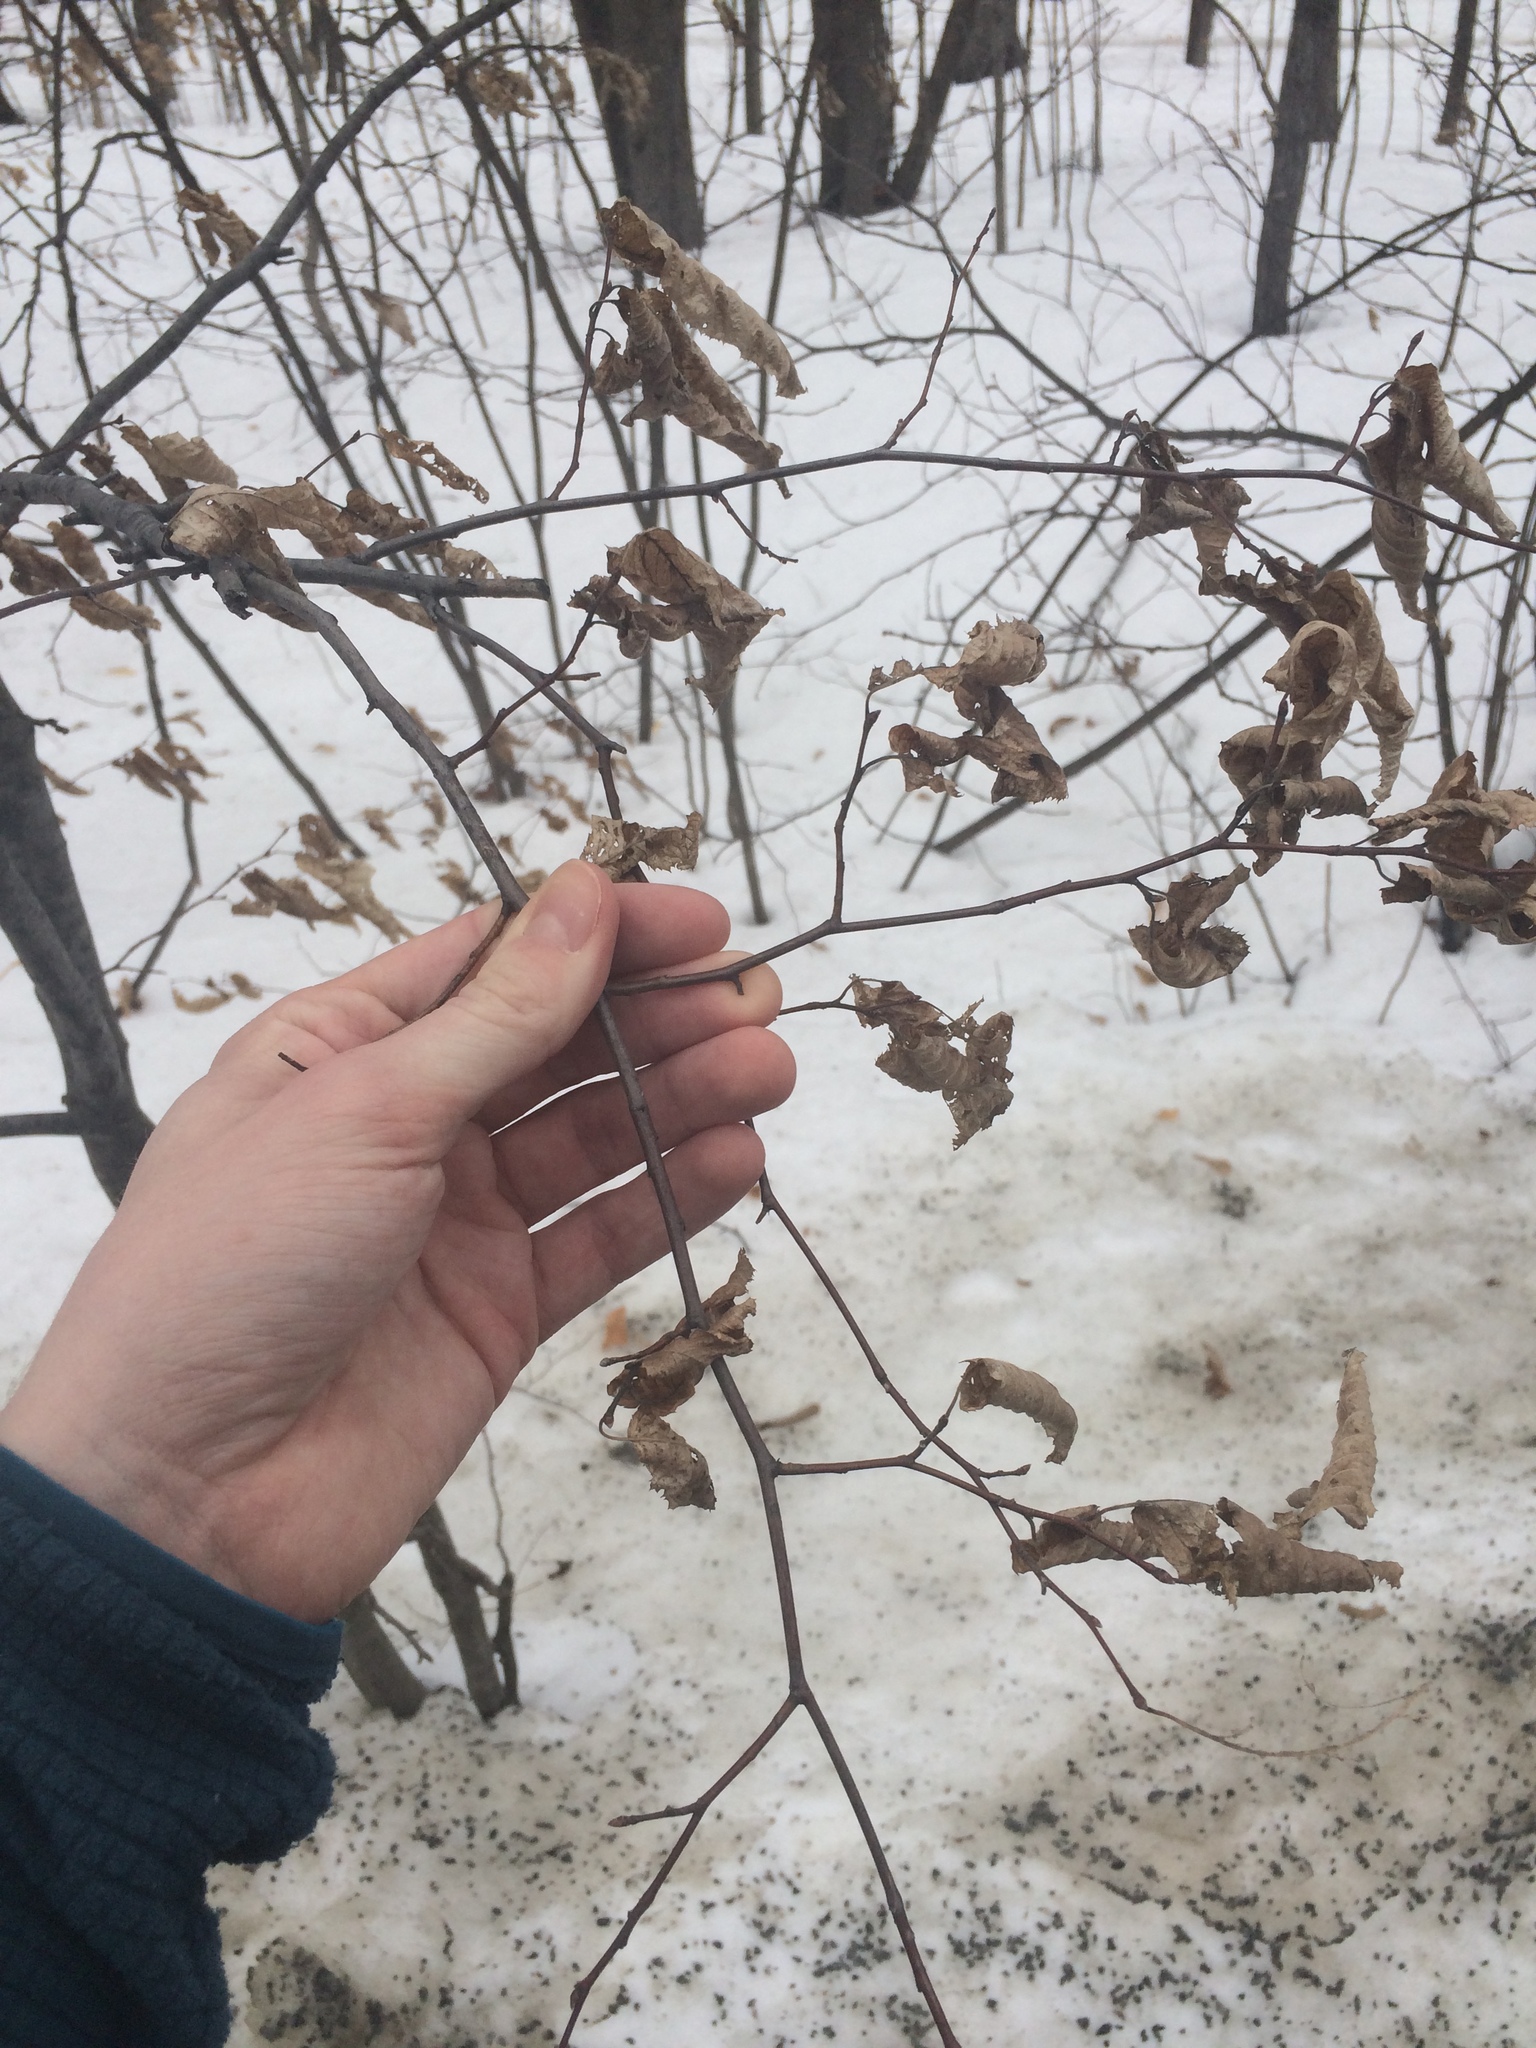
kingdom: Plantae
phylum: Tracheophyta
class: Magnoliopsida
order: Fagales
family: Betulaceae
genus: Carpinus
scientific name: Carpinus caroliniana
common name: American hornbeam
